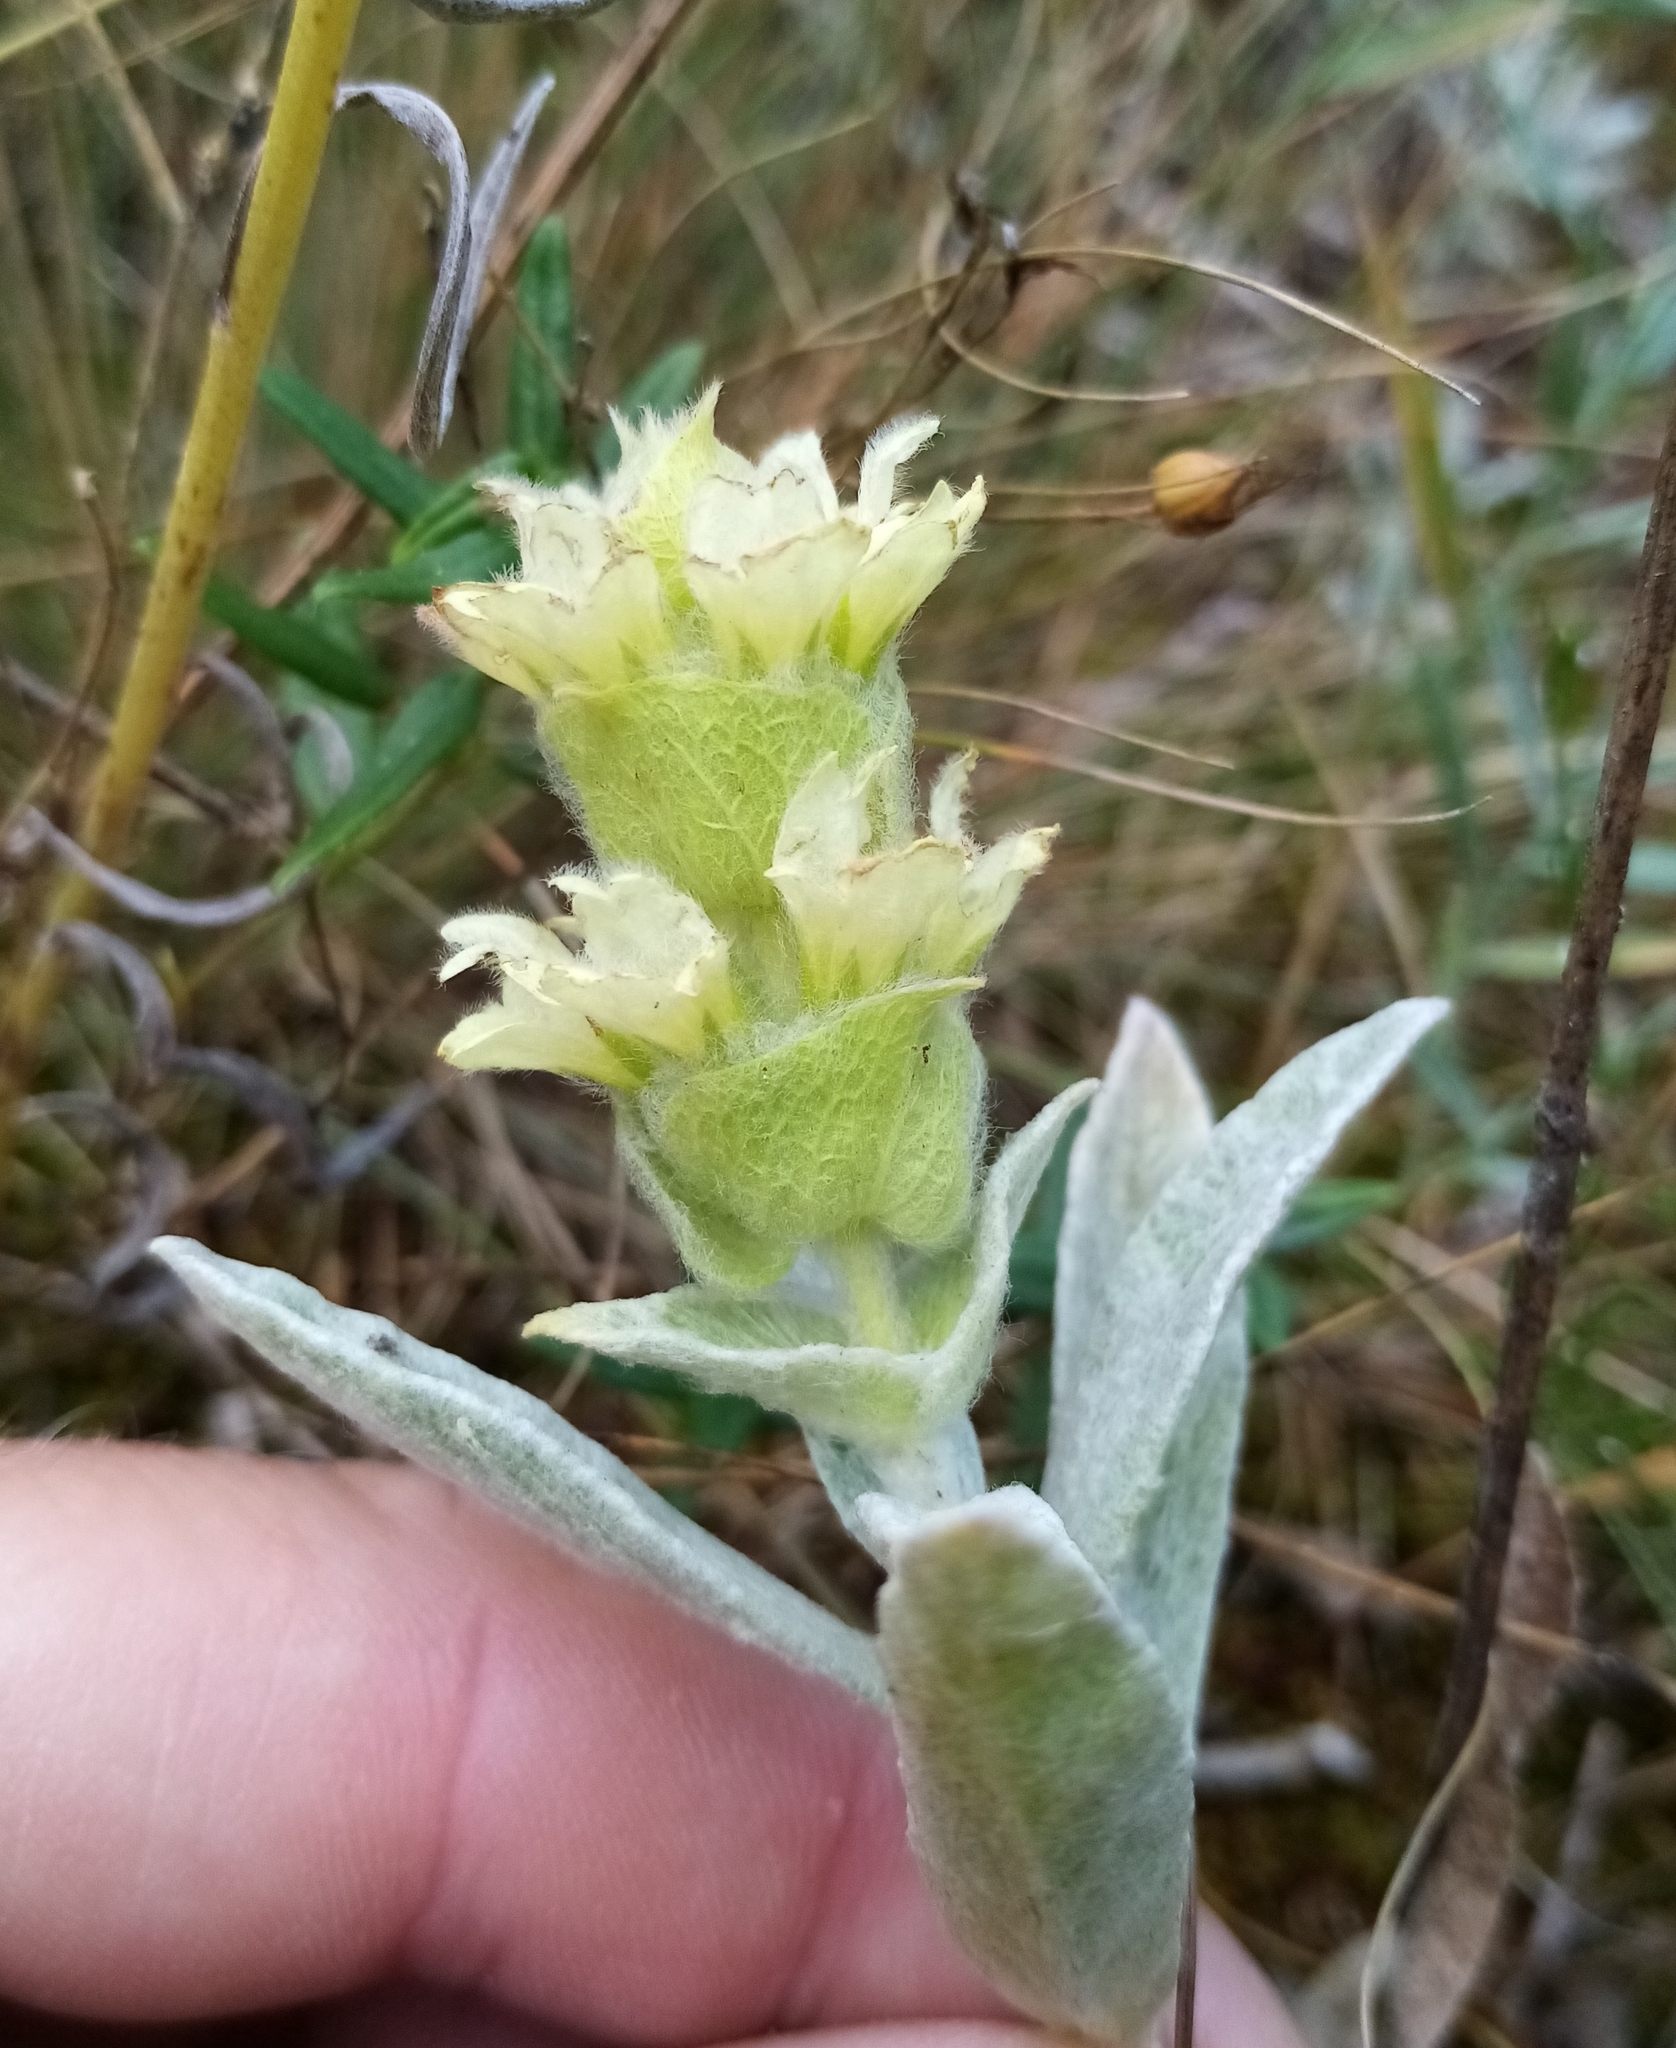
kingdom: Plantae
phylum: Tracheophyta
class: Magnoliopsida
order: Lamiales
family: Lamiaceae
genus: Sideritis
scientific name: Sideritis euxina
